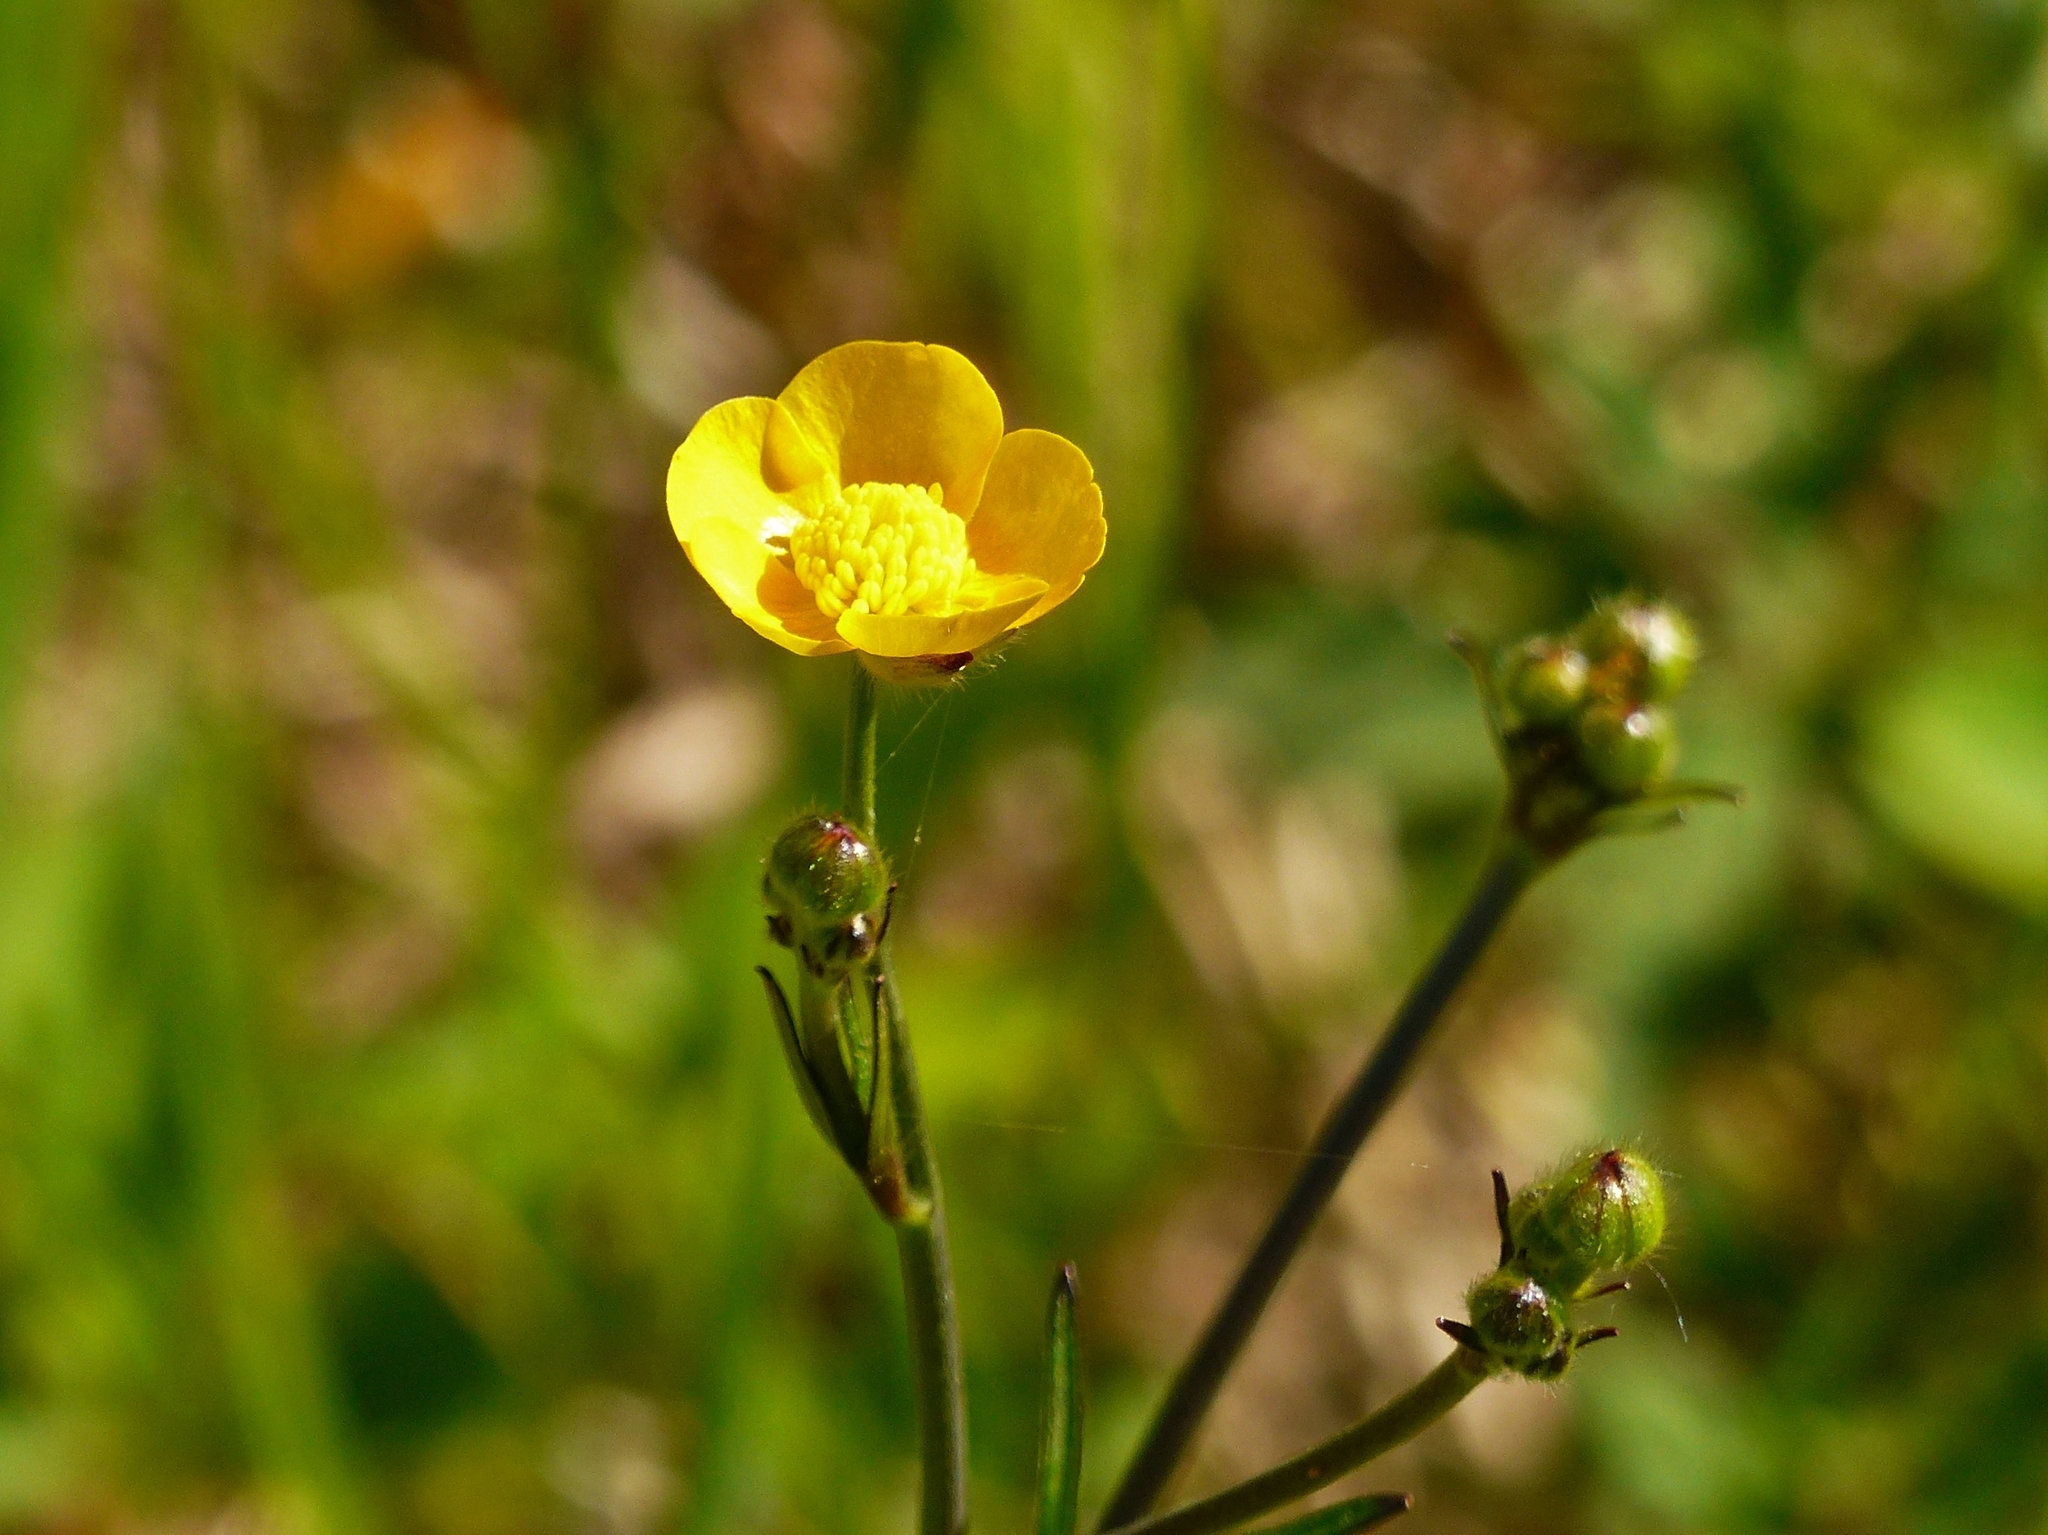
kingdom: Plantae
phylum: Tracheophyta
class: Magnoliopsida
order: Ranunculales
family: Ranunculaceae
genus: Ranunculus
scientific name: Ranunculus fascicularis
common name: Early buttercup
